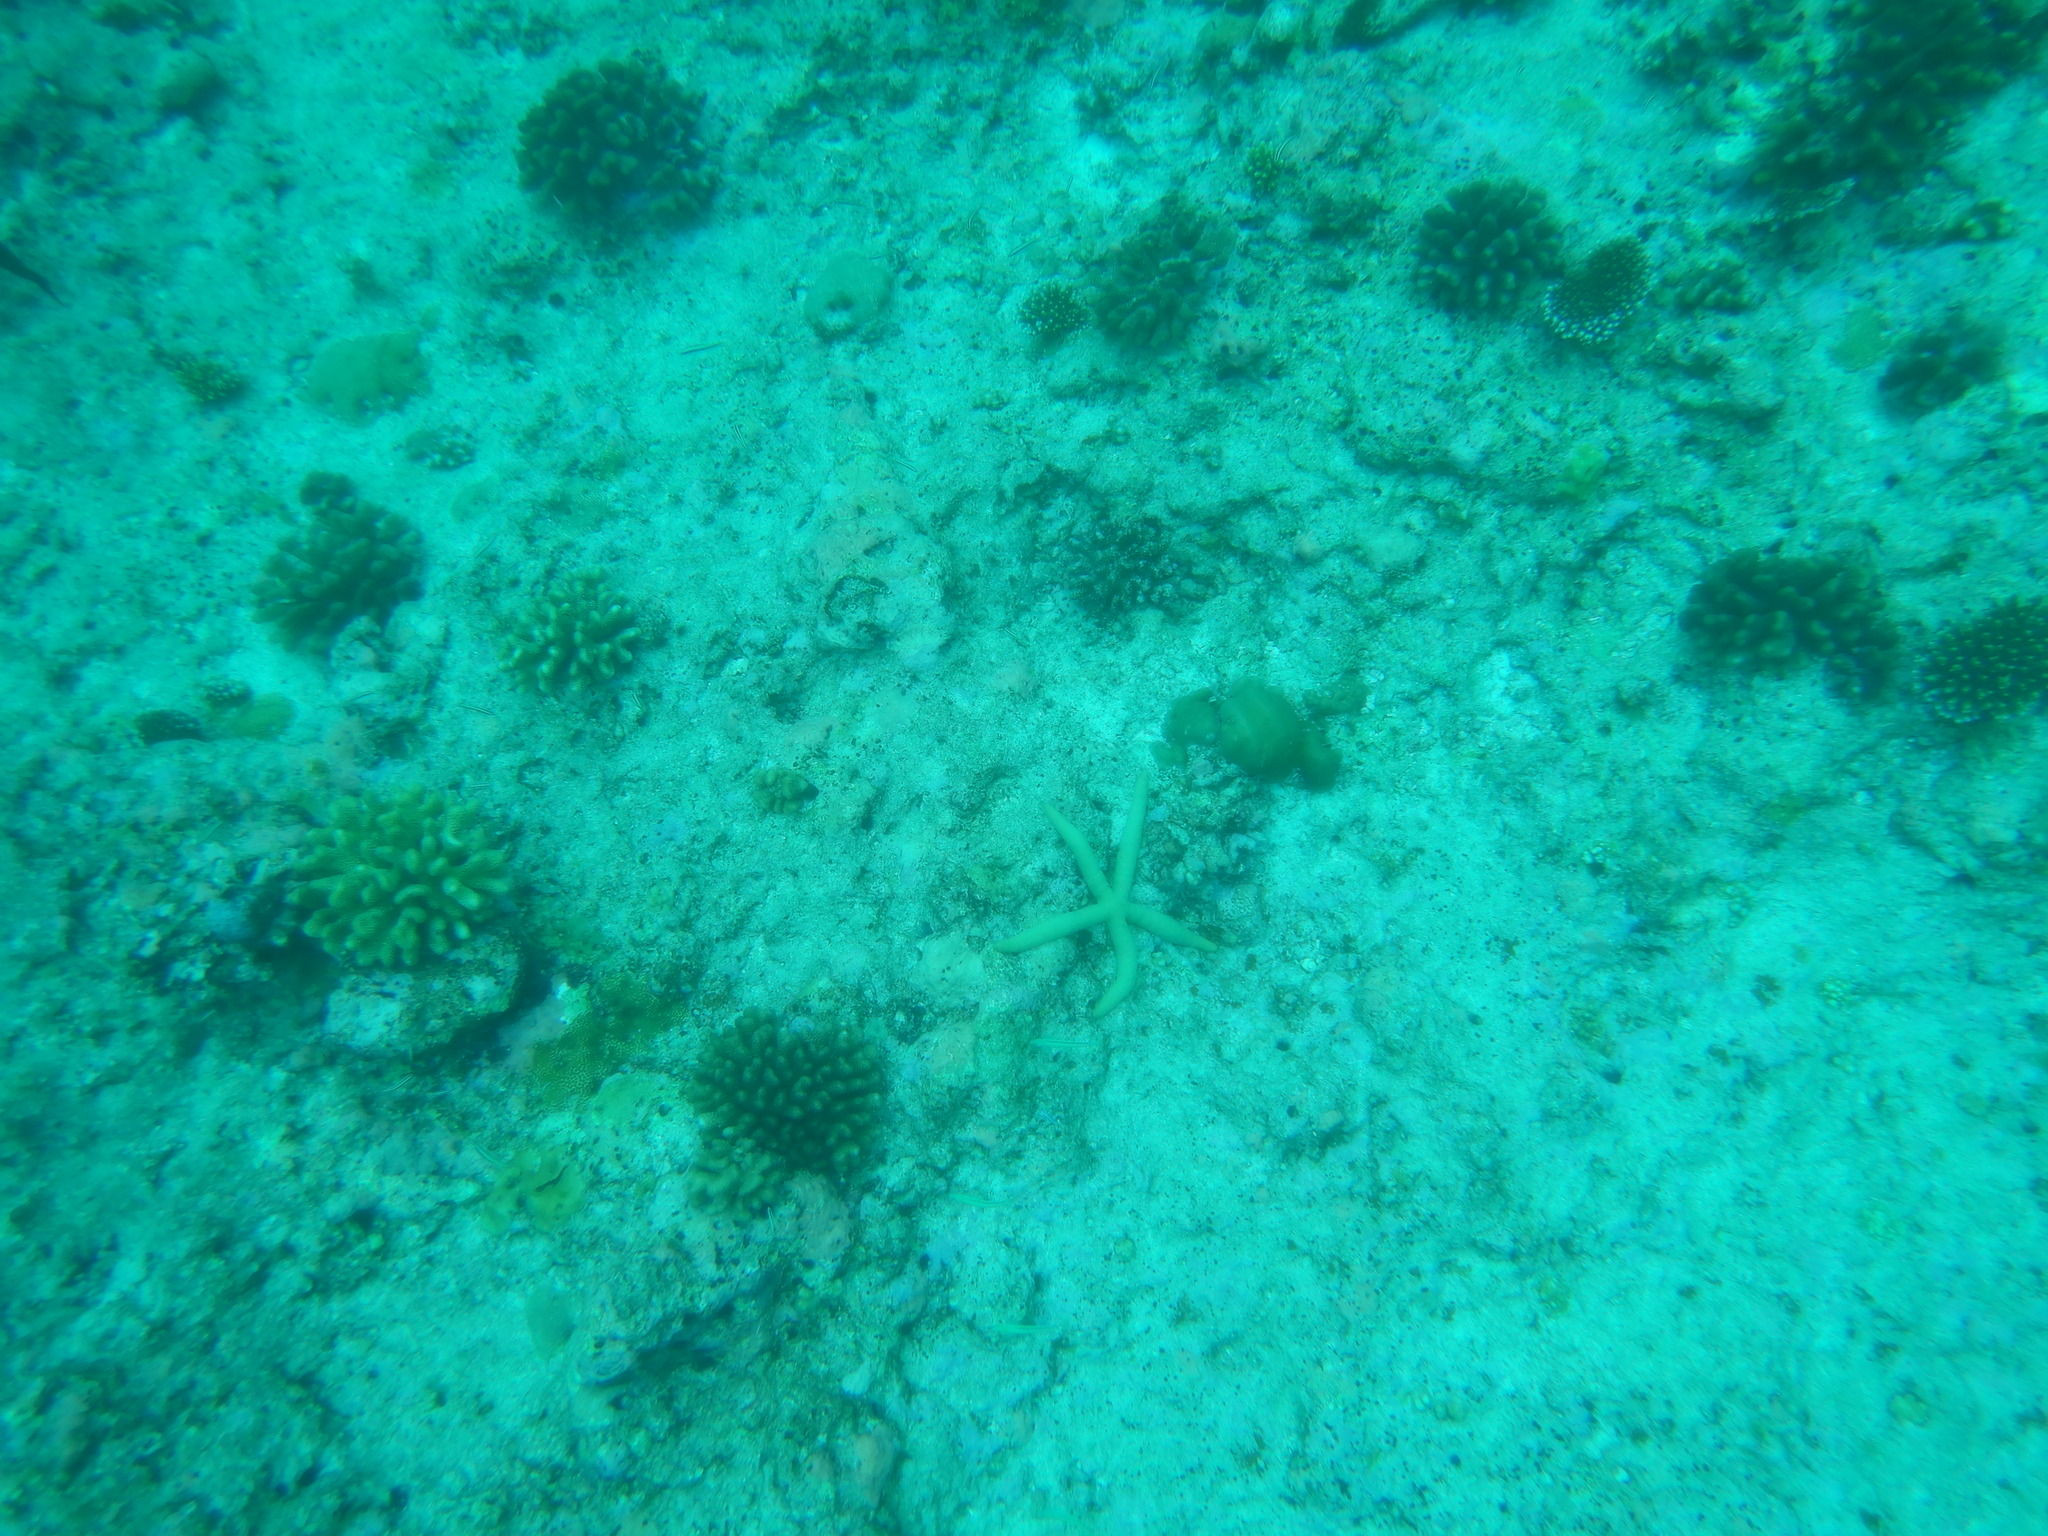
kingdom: Animalia
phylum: Echinodermata
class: Asteroidea
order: Valvatida
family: Ophidiasteridae
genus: Linckia
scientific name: Linckia guildingi
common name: Common comet star
